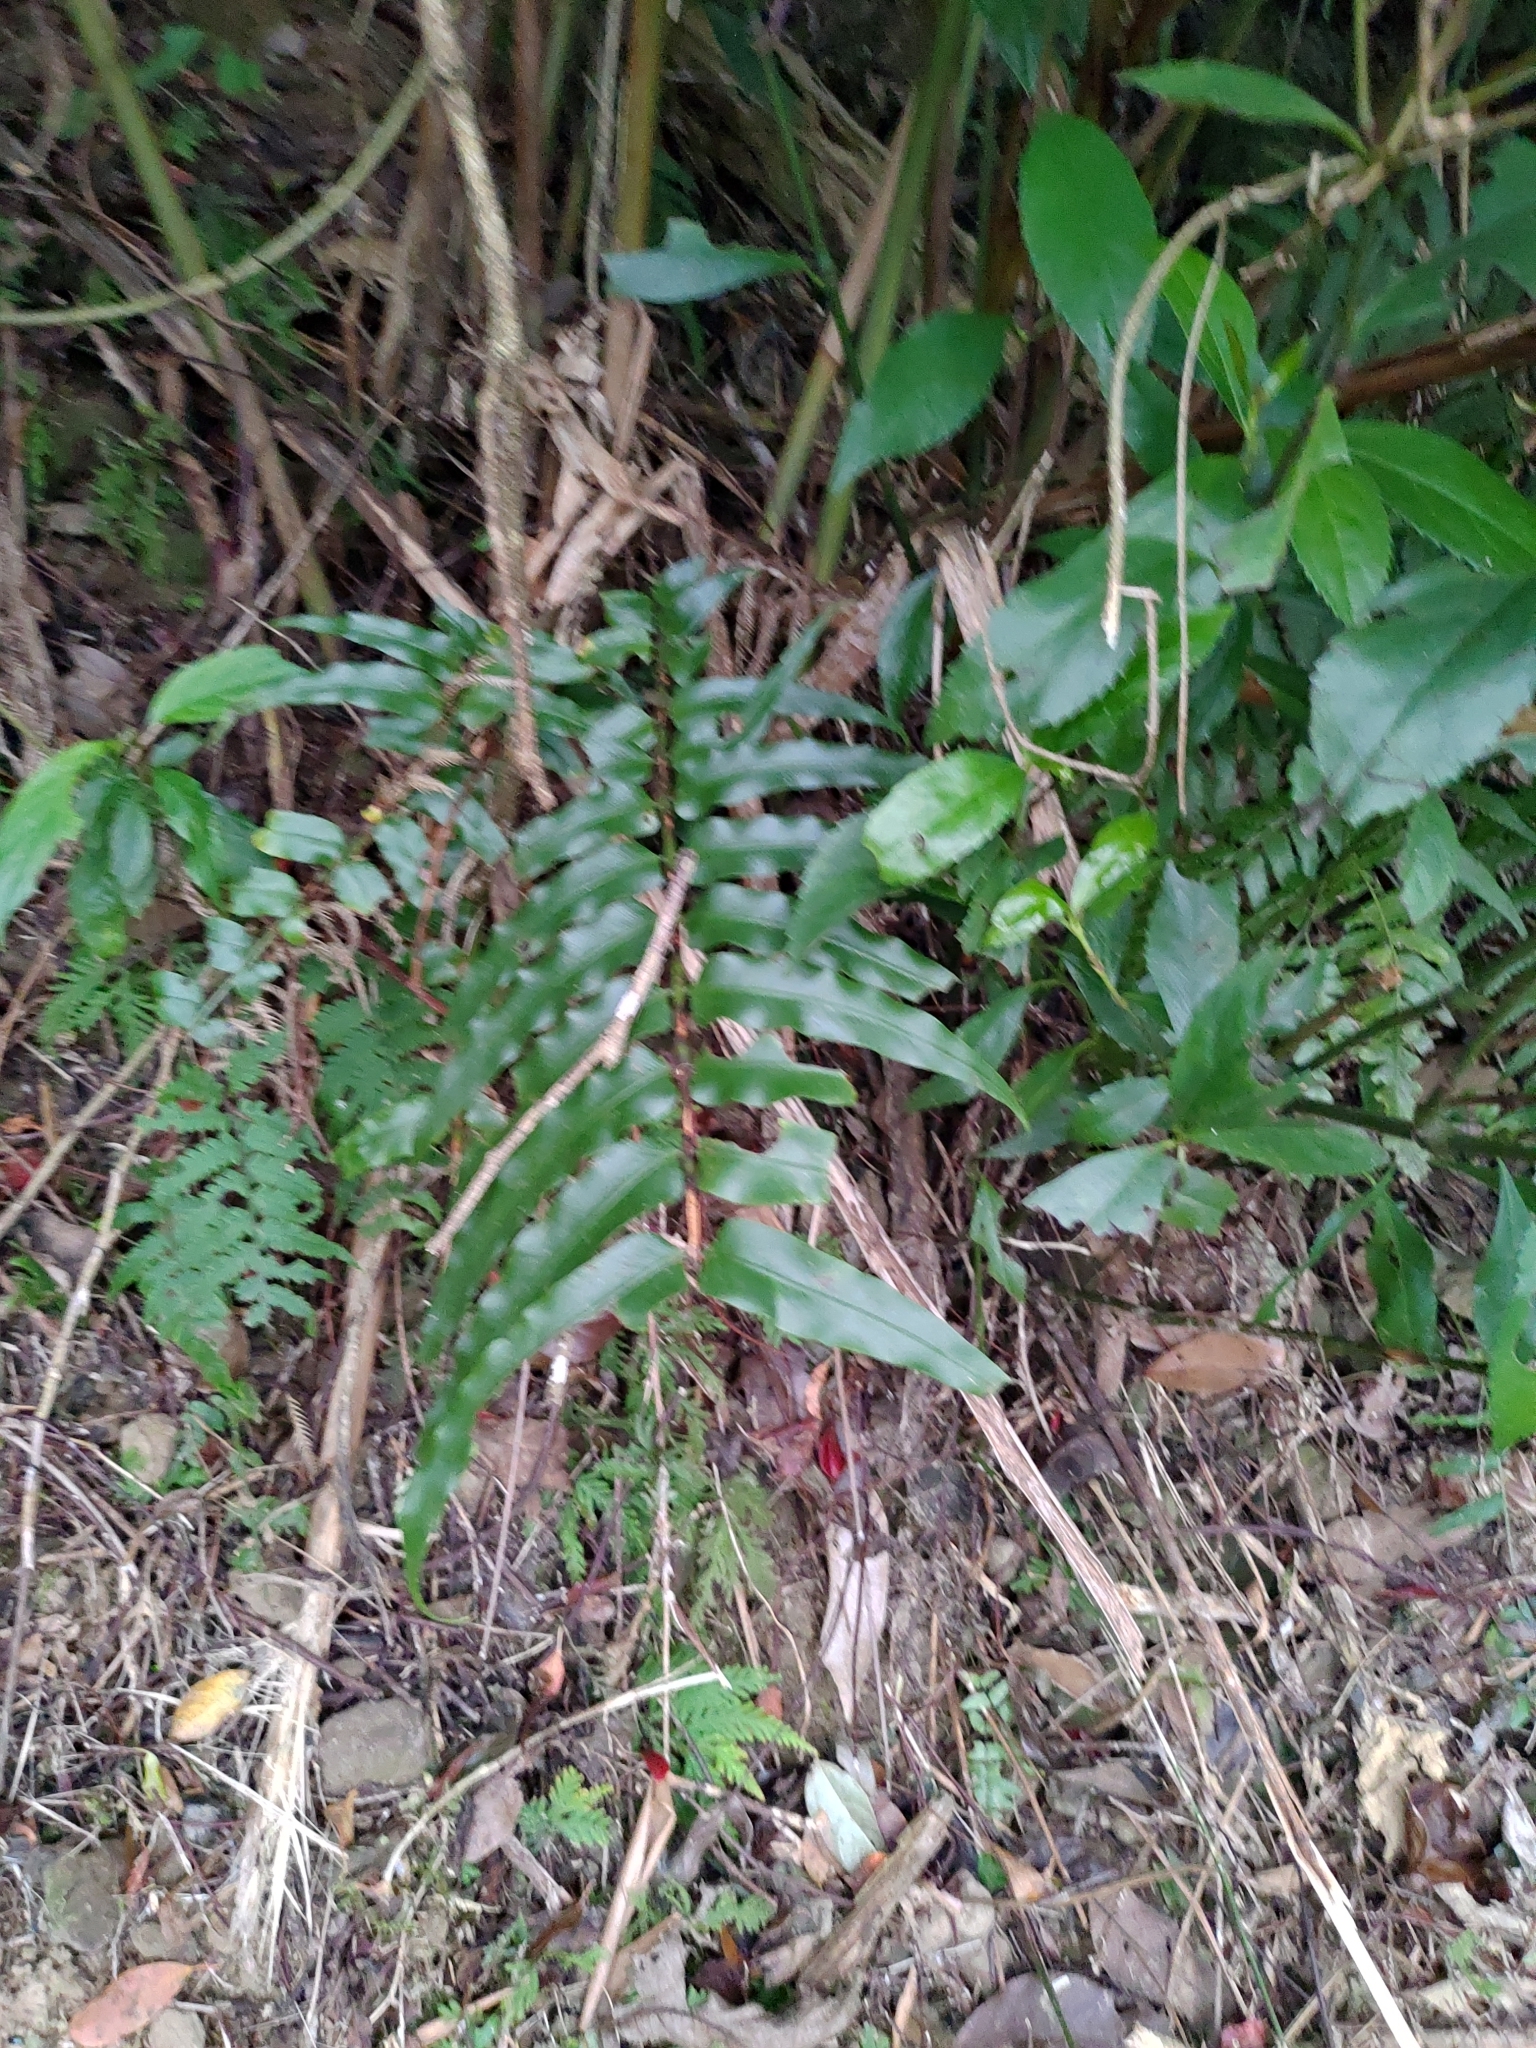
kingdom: Plantae
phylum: Tracheophyta
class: Polypodiopsida
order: Polypodiales
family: Nephrolepidaceae
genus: Nephrolepis
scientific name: Nephrolepis biserrata
